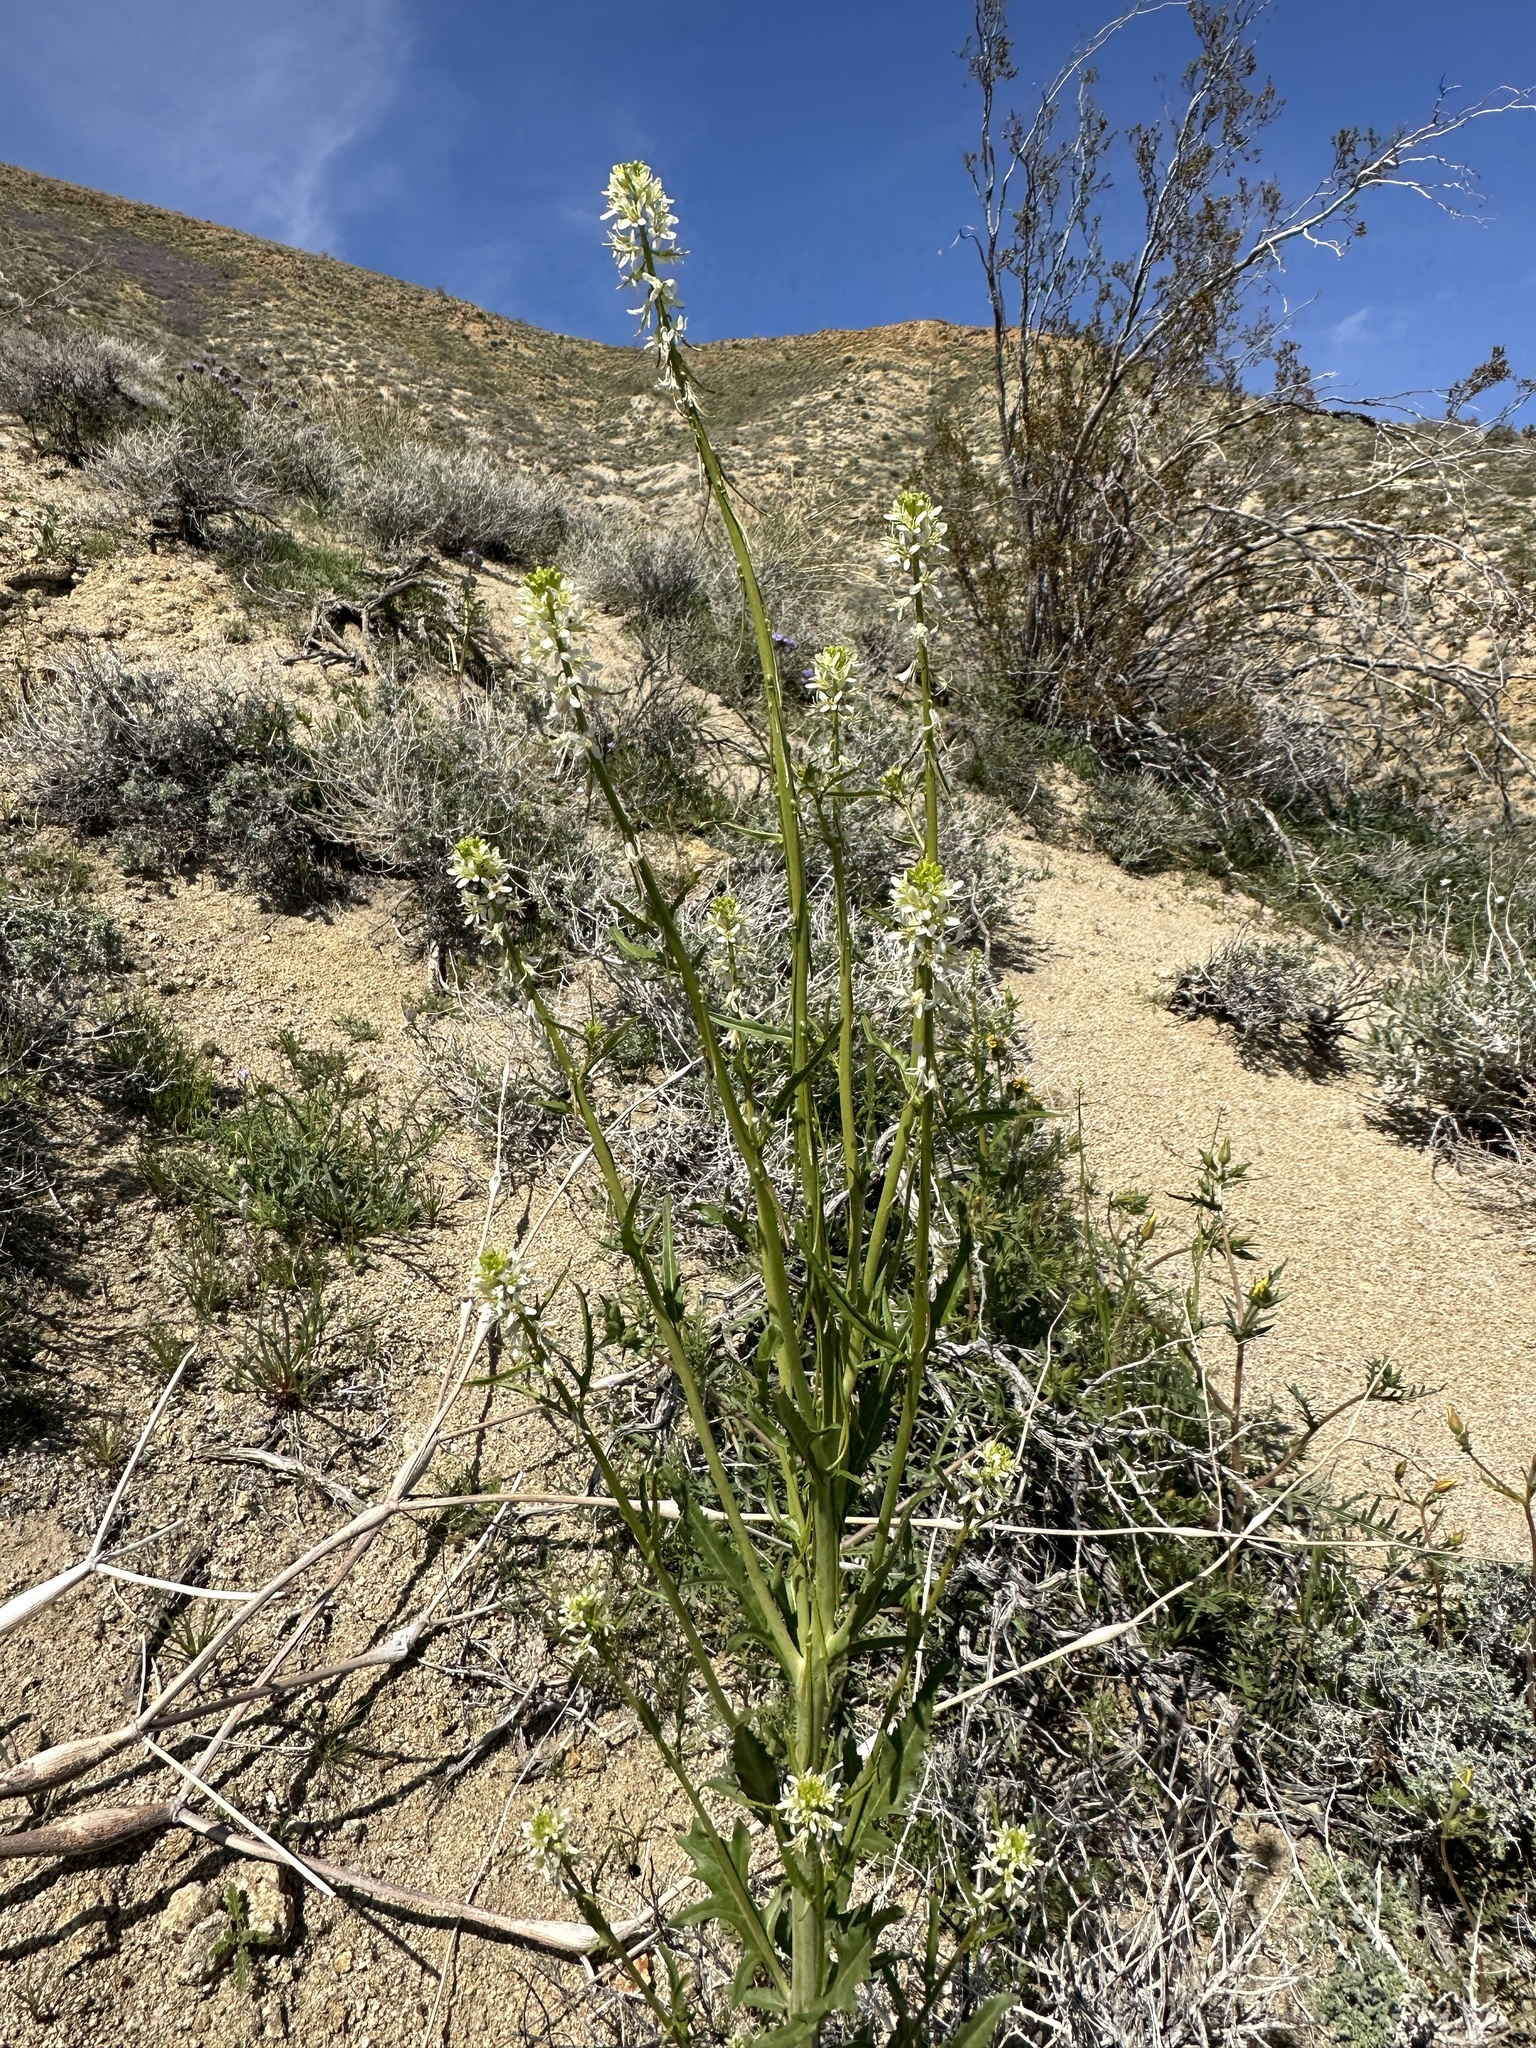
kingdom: Plantae
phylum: Tracheophyta
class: Magnoliopsida
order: Brassicales
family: Brassicaceae
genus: Streptanthus
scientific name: Streptanthus lasiophyllus
